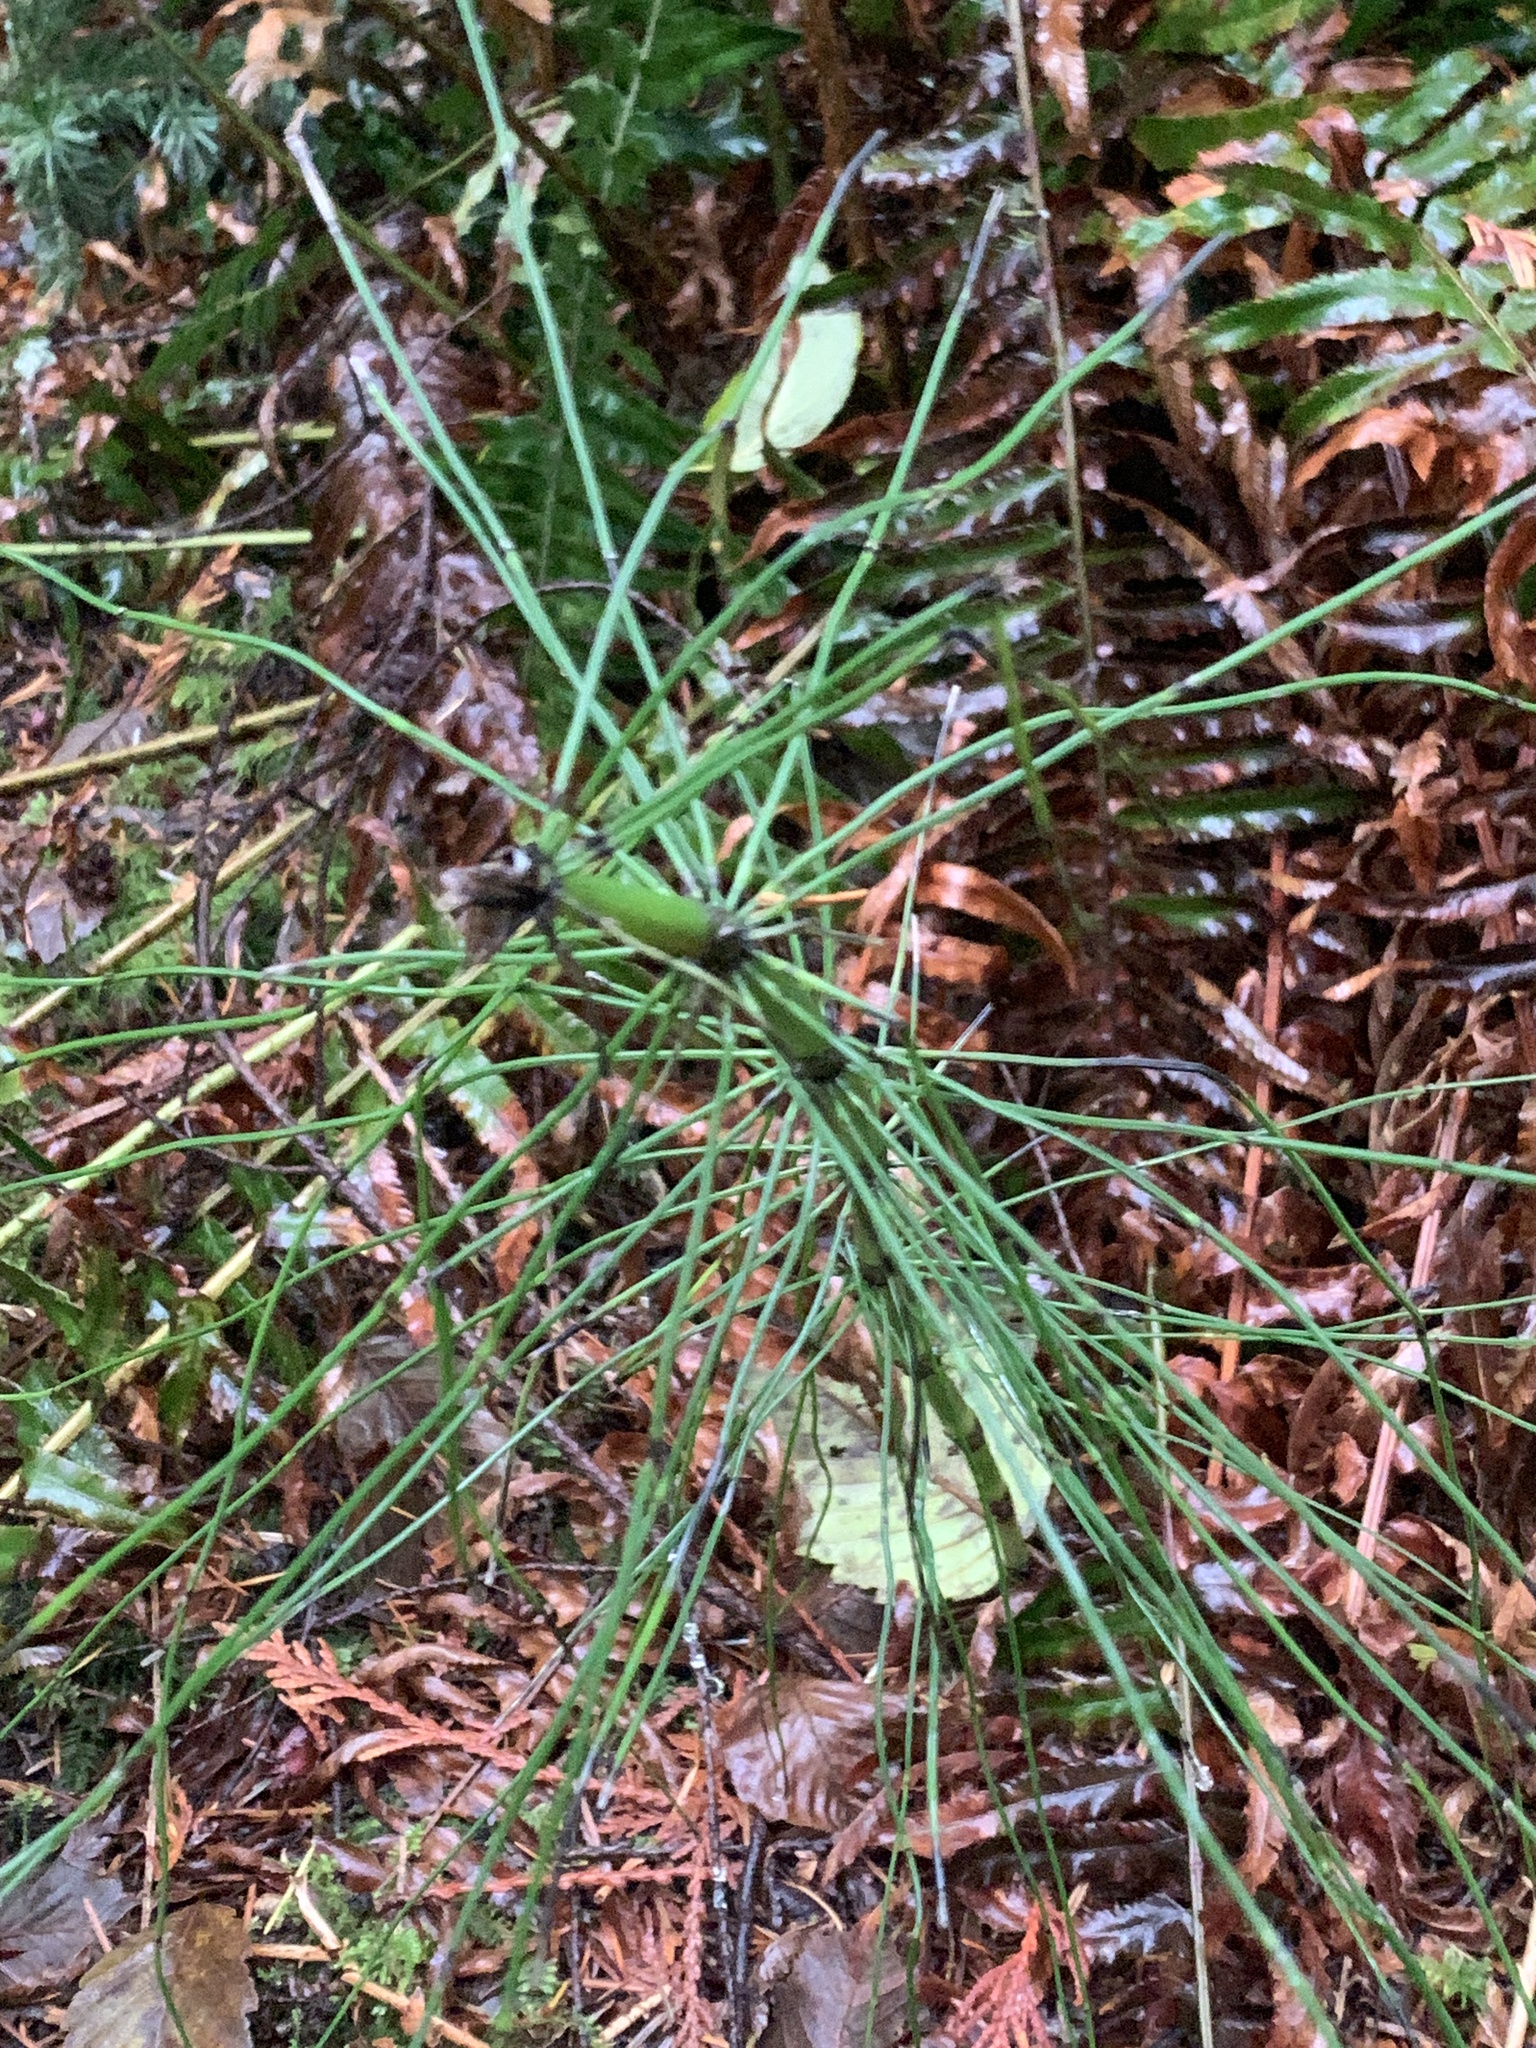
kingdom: Plantae
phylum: Tracheophyta
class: Polypodiopsida
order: Equisetales
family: Equisetaceae
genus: Equisetum
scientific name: Equisetum telmateia
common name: Great horsetail
